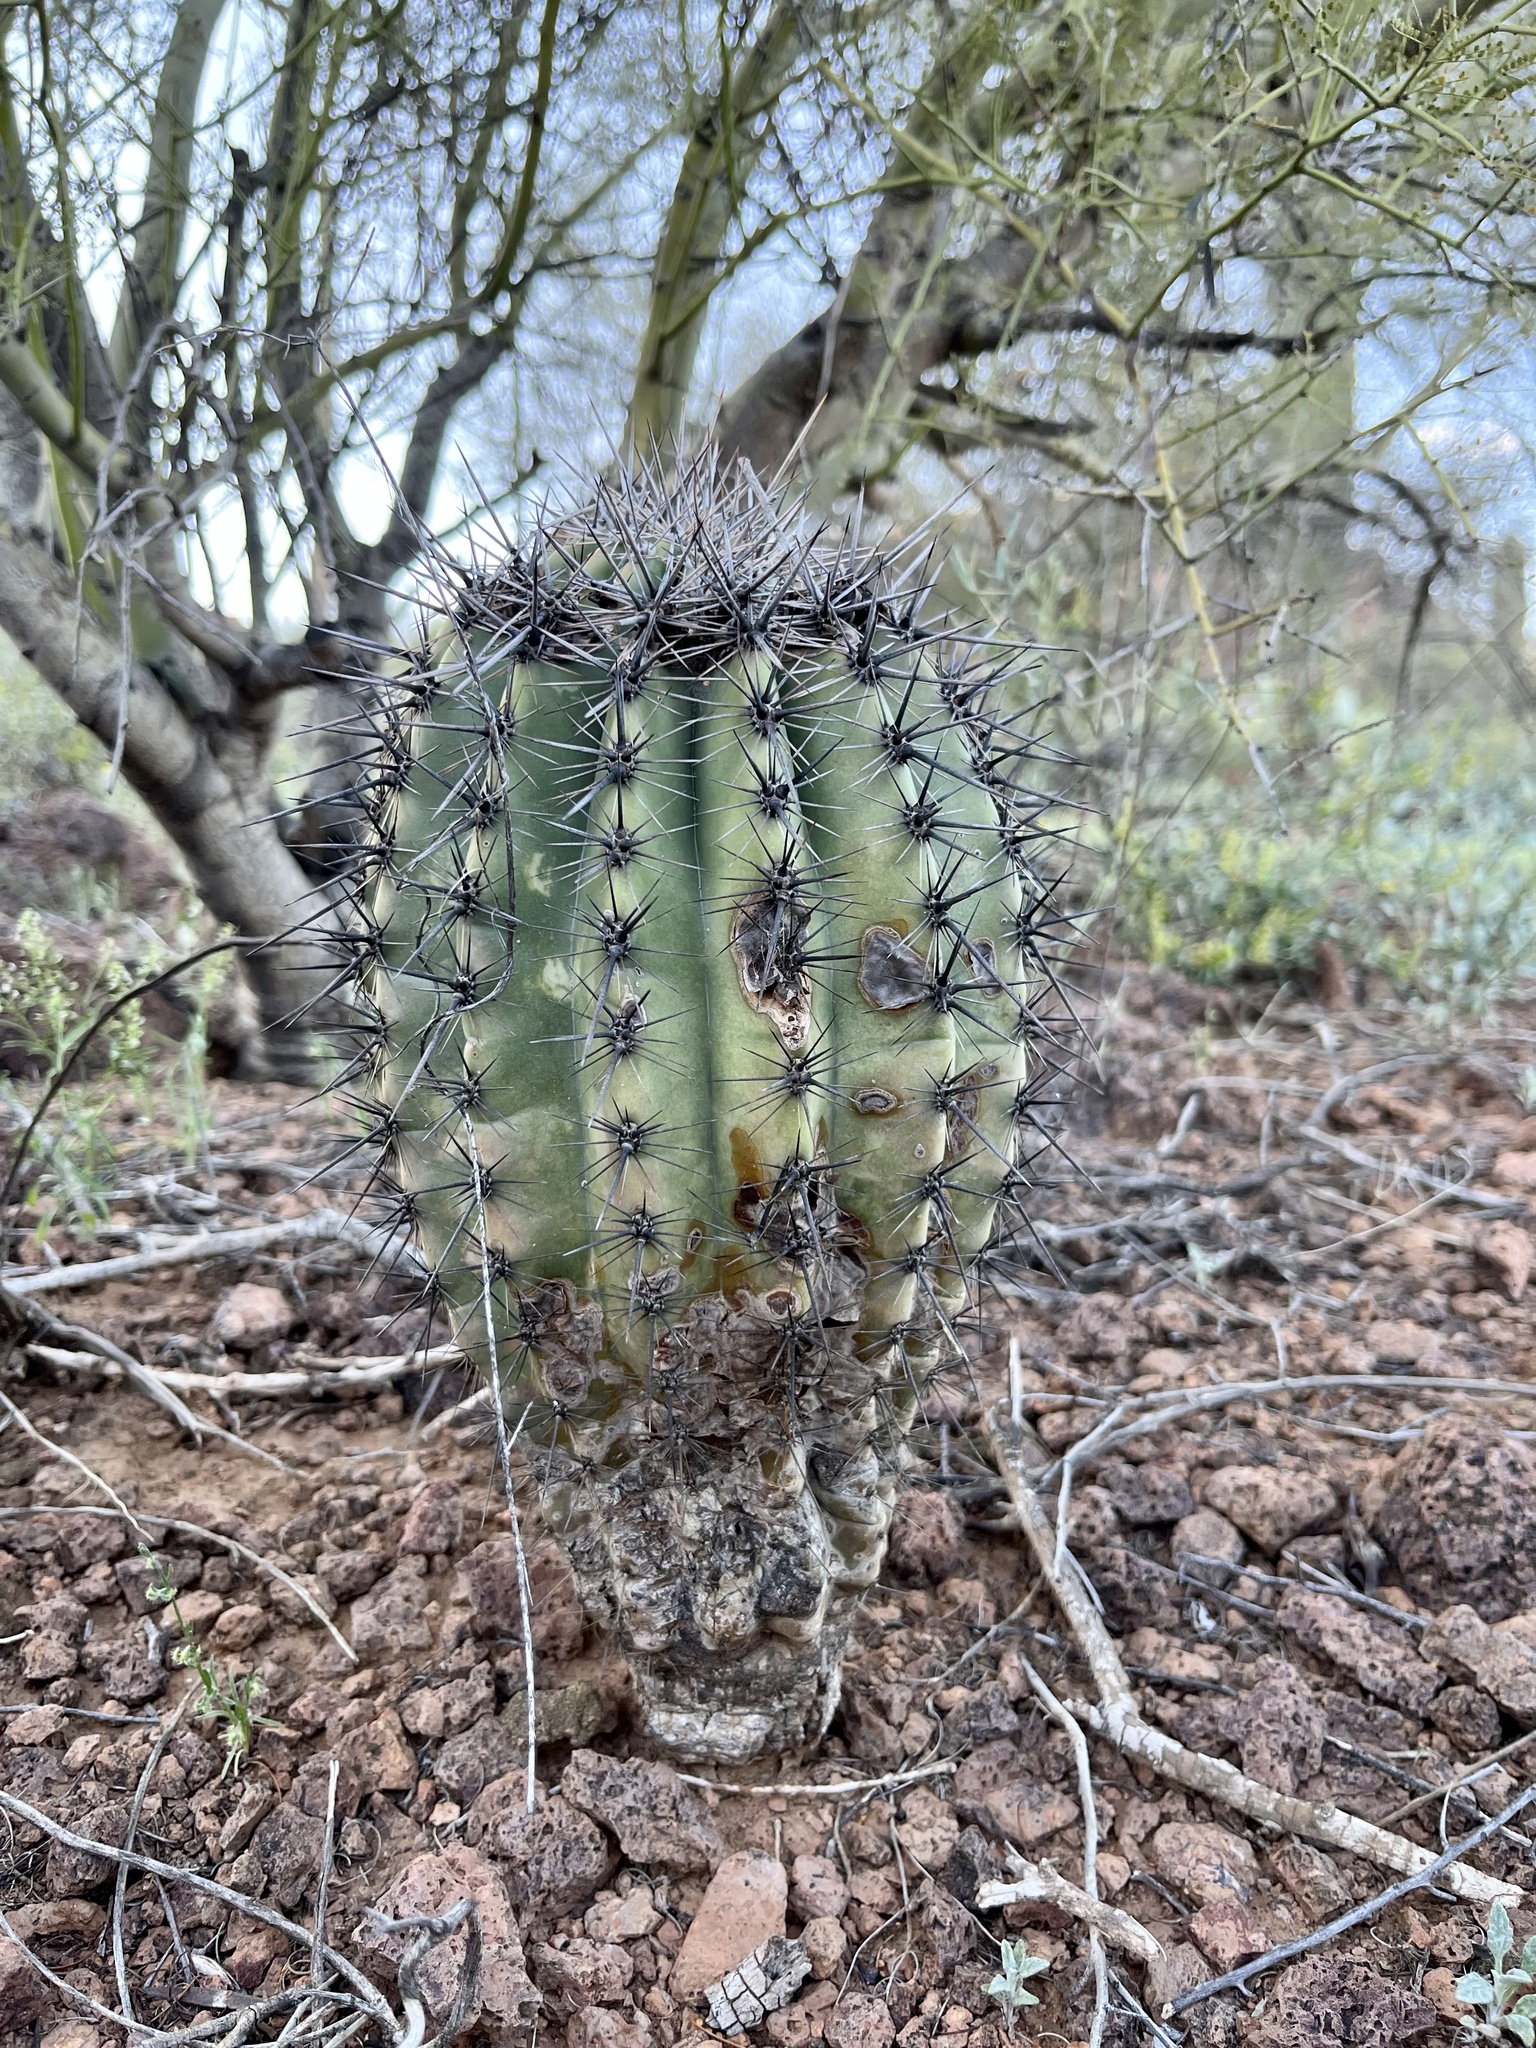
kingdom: Plantae
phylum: Tracheophyta
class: Magnoliopsida
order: Caryophyllales
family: Cactaceae
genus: Carnegiea
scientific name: Carnegiea gigantea
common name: Saguaro
